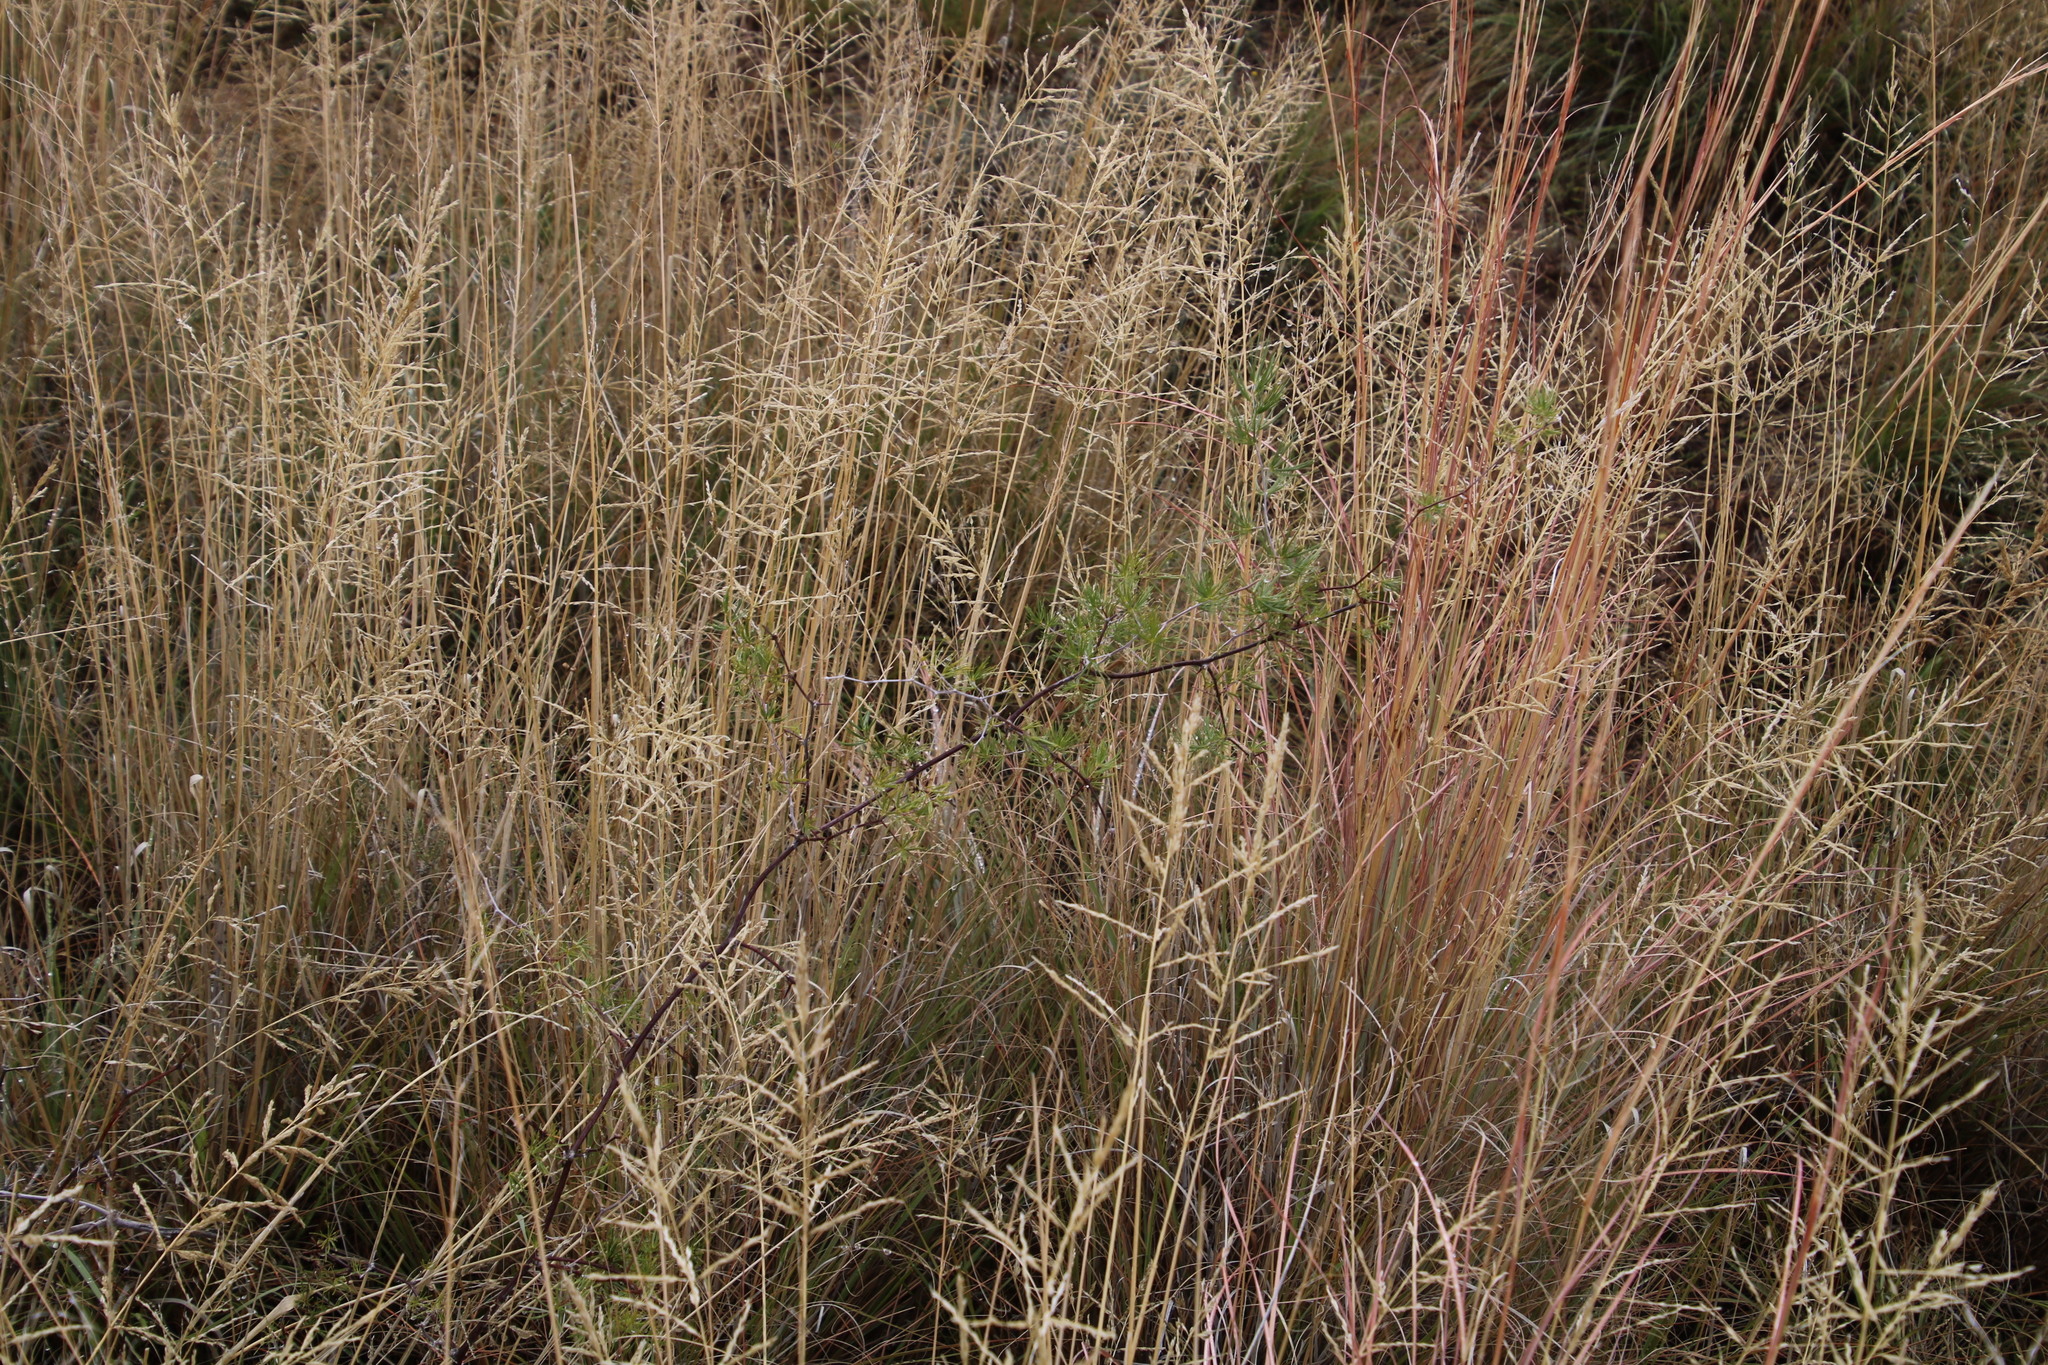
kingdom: Plantae
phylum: Tracheophyta
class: Liliopsida
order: Asparagales
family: Asparagaceae
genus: Asparagus
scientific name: Asparagus retrofractus
